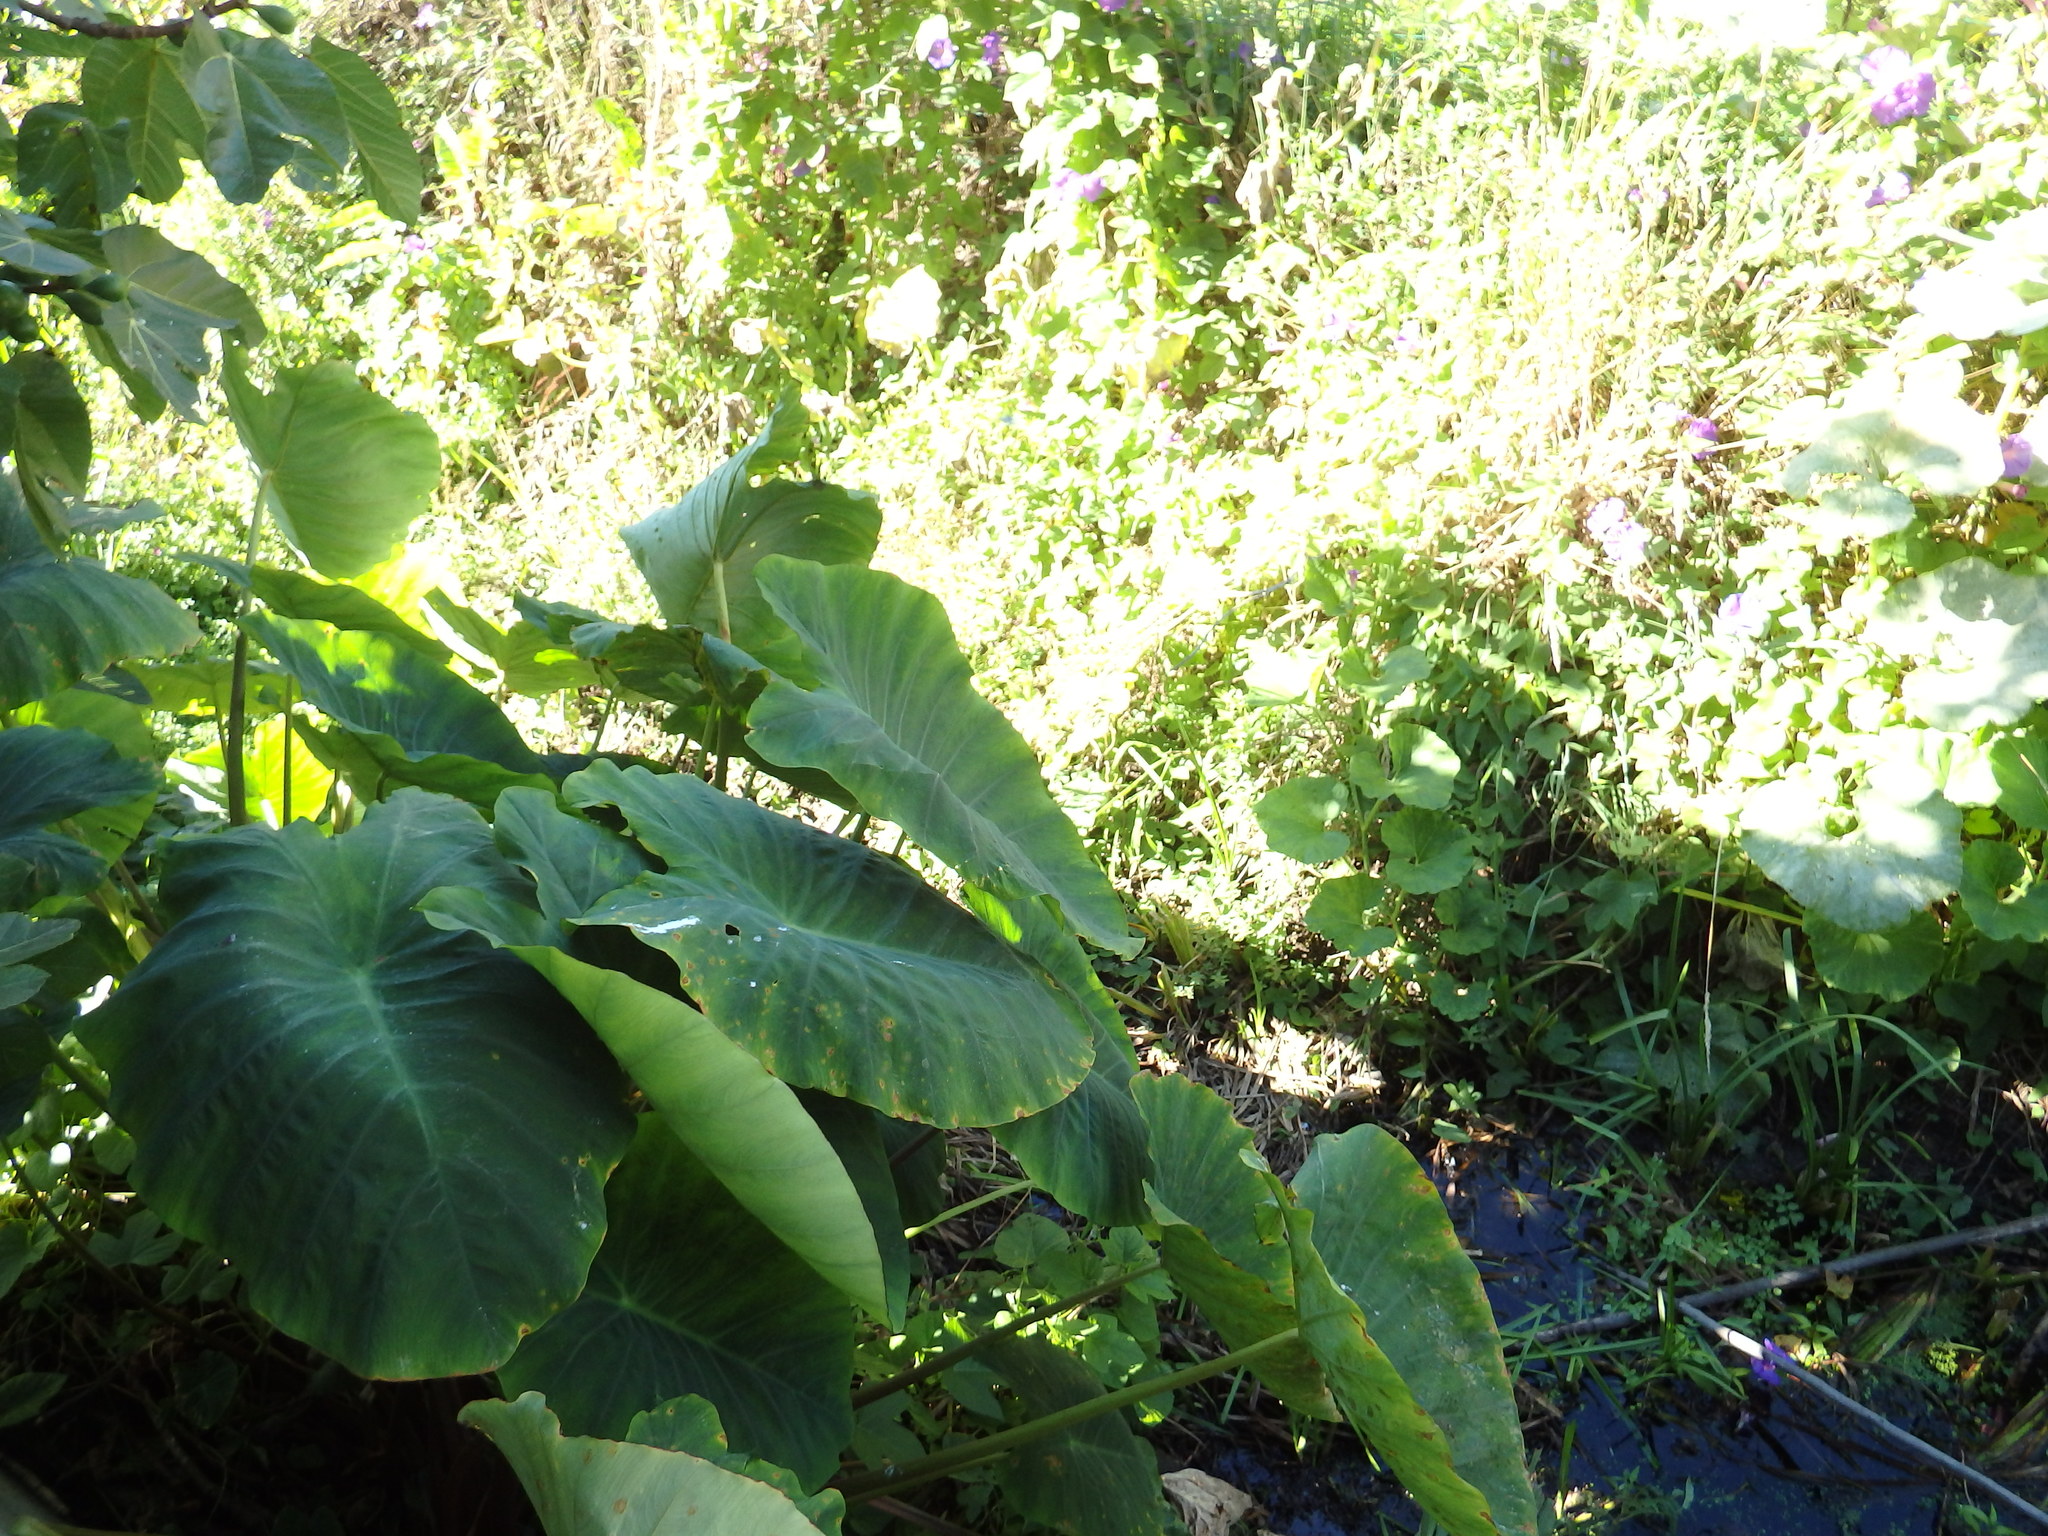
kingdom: Plantae
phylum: Tracheophyta
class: Liliopsida
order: Alismatales
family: Araceae
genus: Colocasia
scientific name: Colocasia esculenta
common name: Taro
